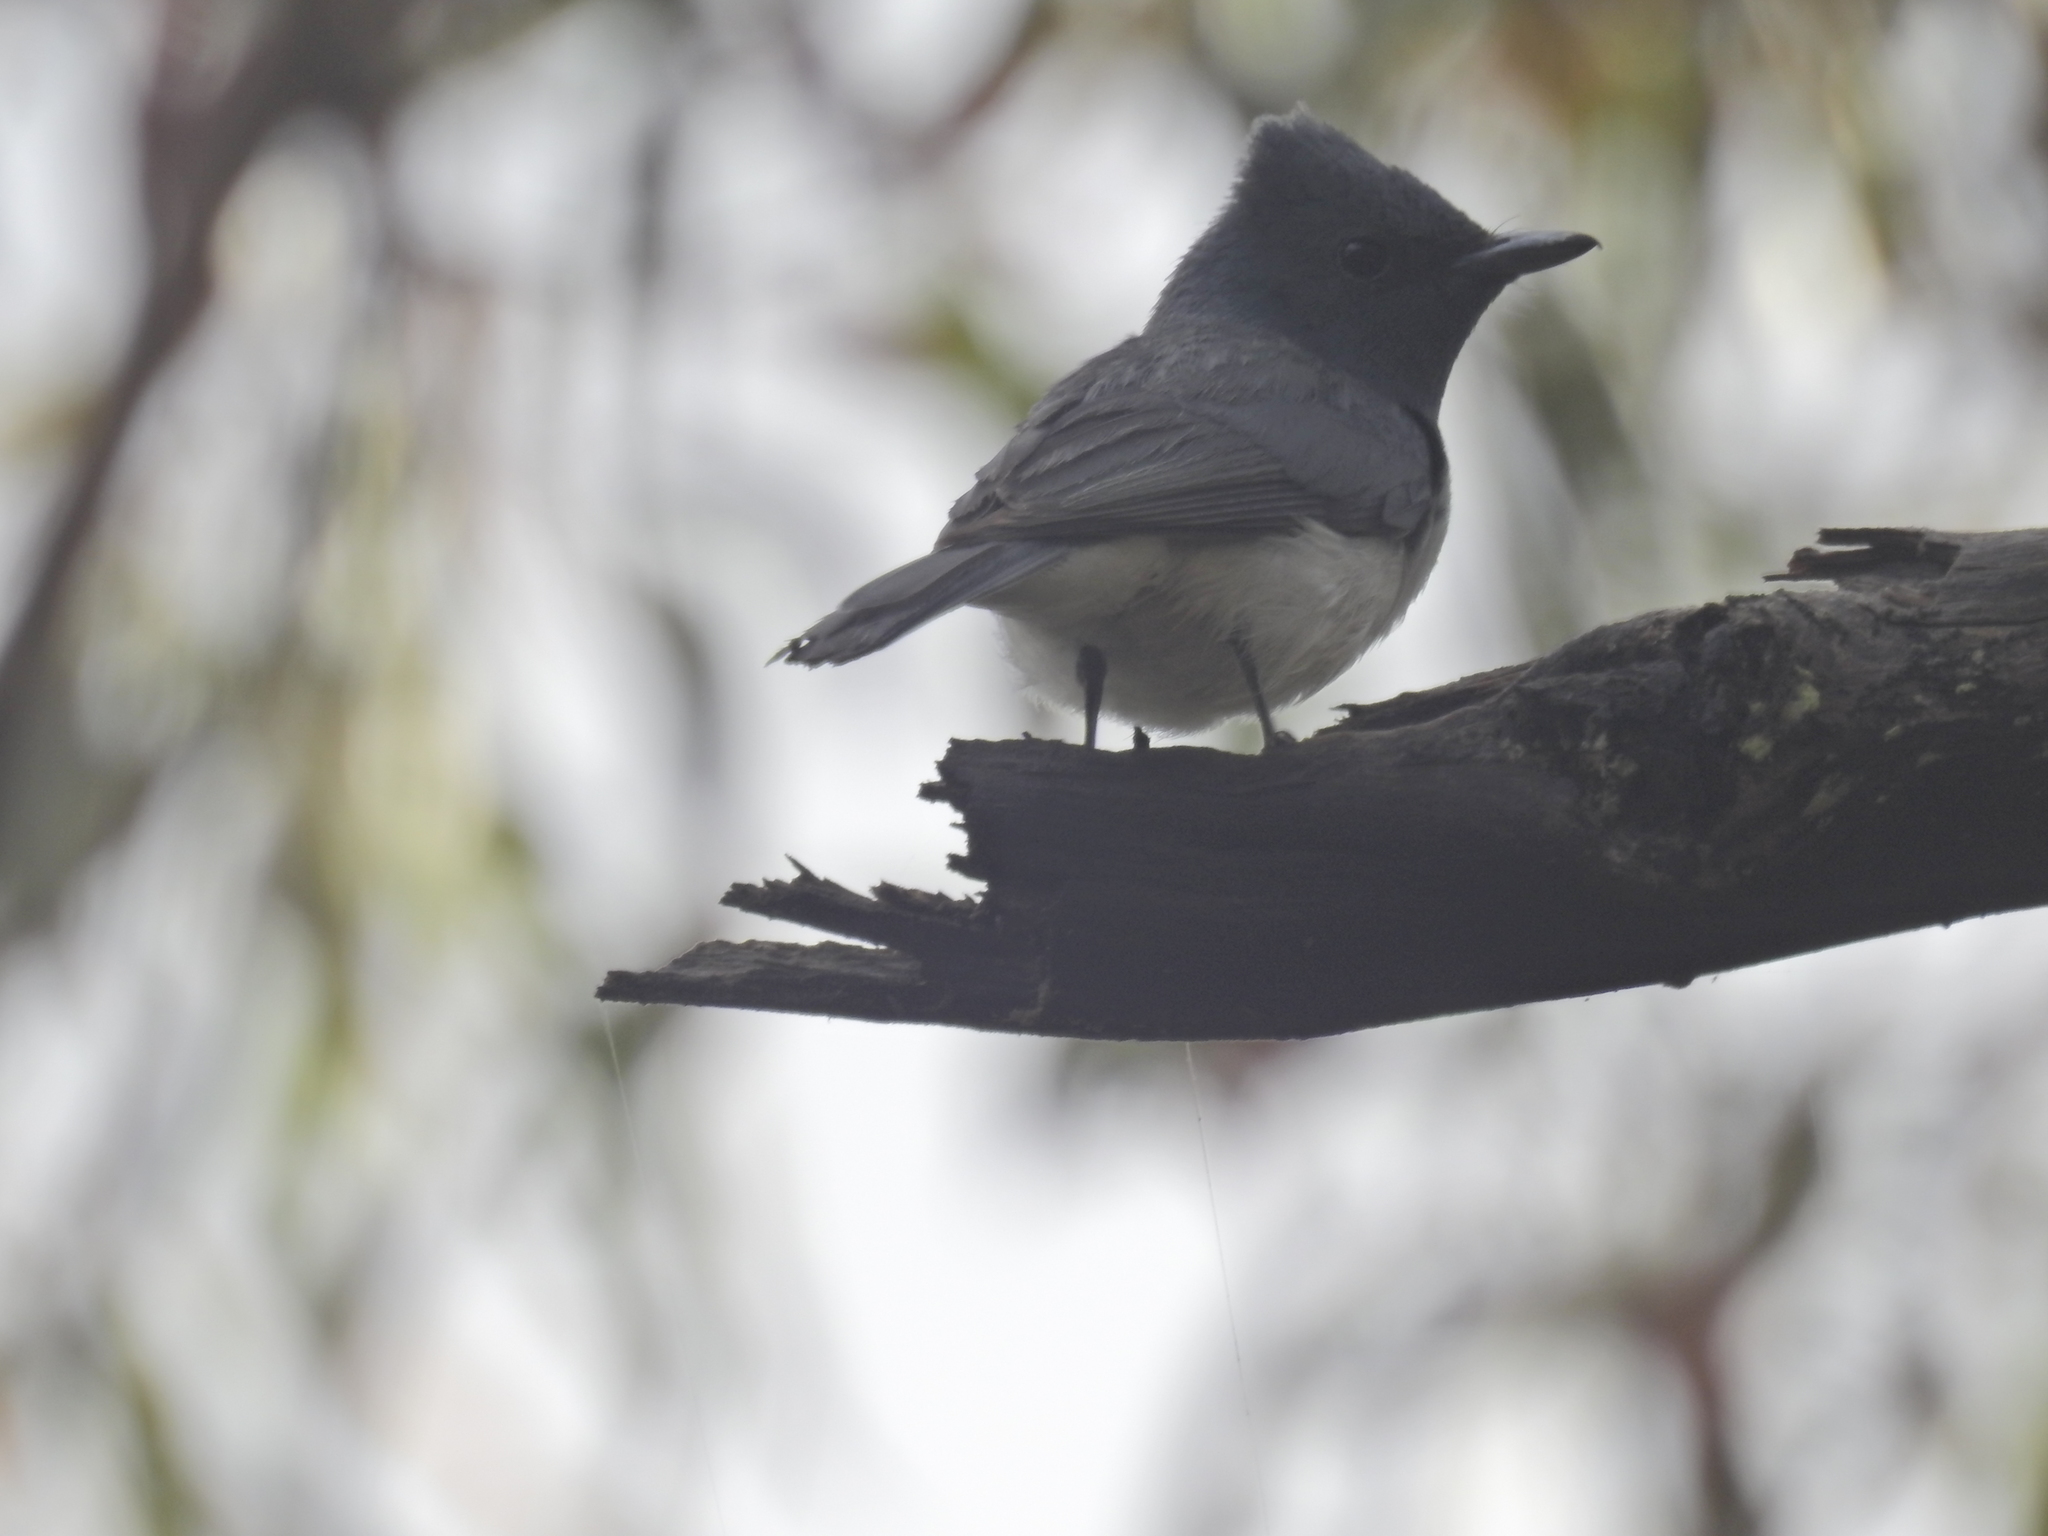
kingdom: Animalia
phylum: Chordata
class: Aves
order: Passeriformes
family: Monarchidae
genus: Myiagra
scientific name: Myiagra rubecula
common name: Leaden flycatcher
